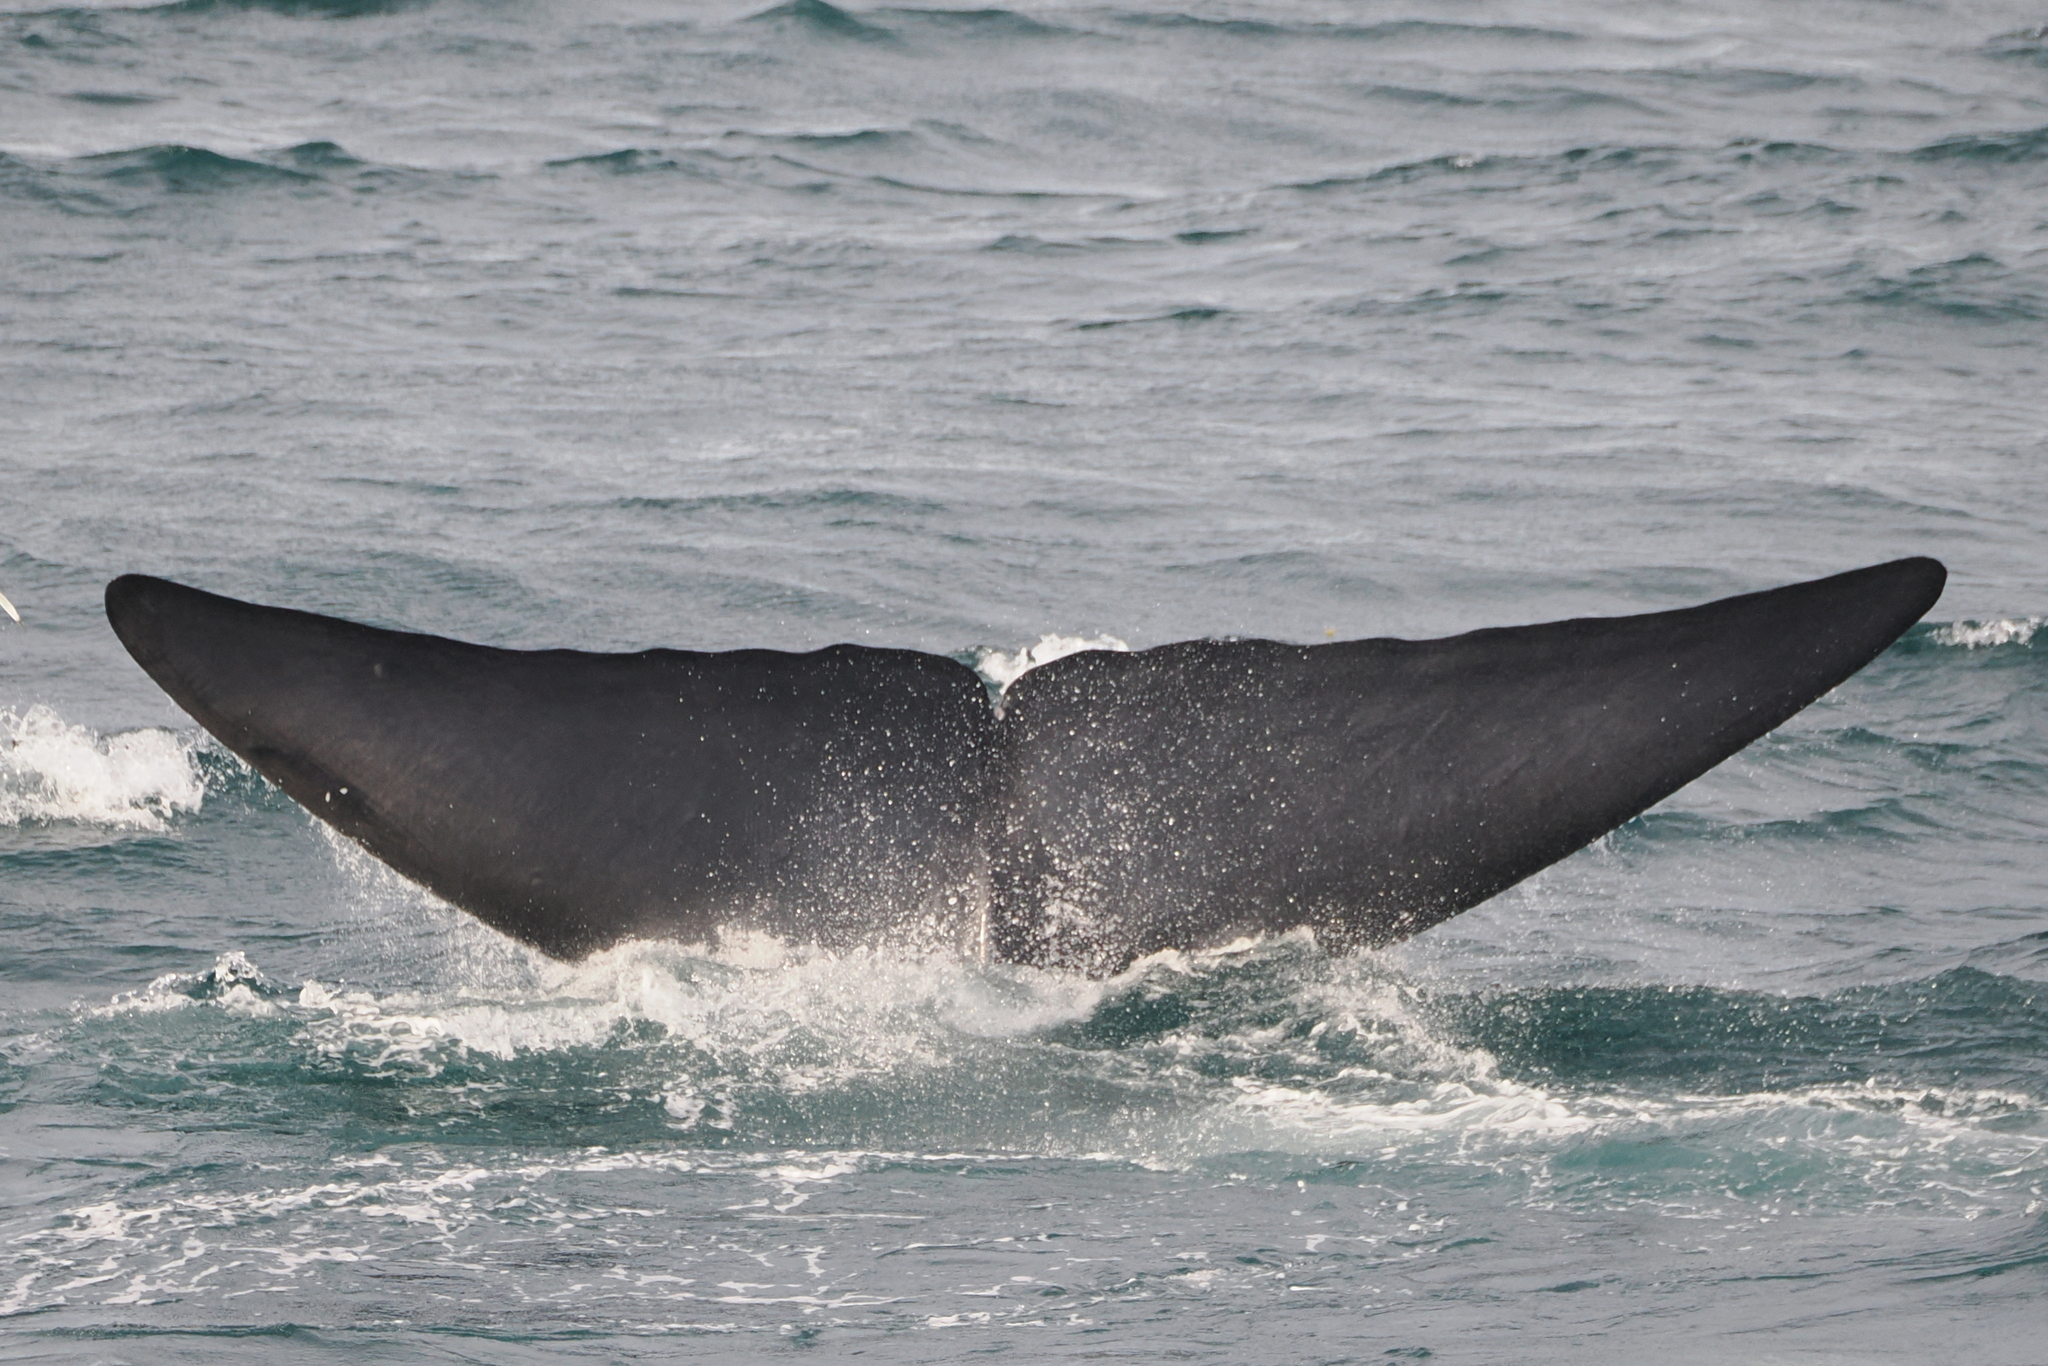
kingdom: Animalia
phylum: Chordata
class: Mammalia
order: Cetacea
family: Balaenopteridae
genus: Balaenoptera
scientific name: Balaenoptera musculus
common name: Blue whale
